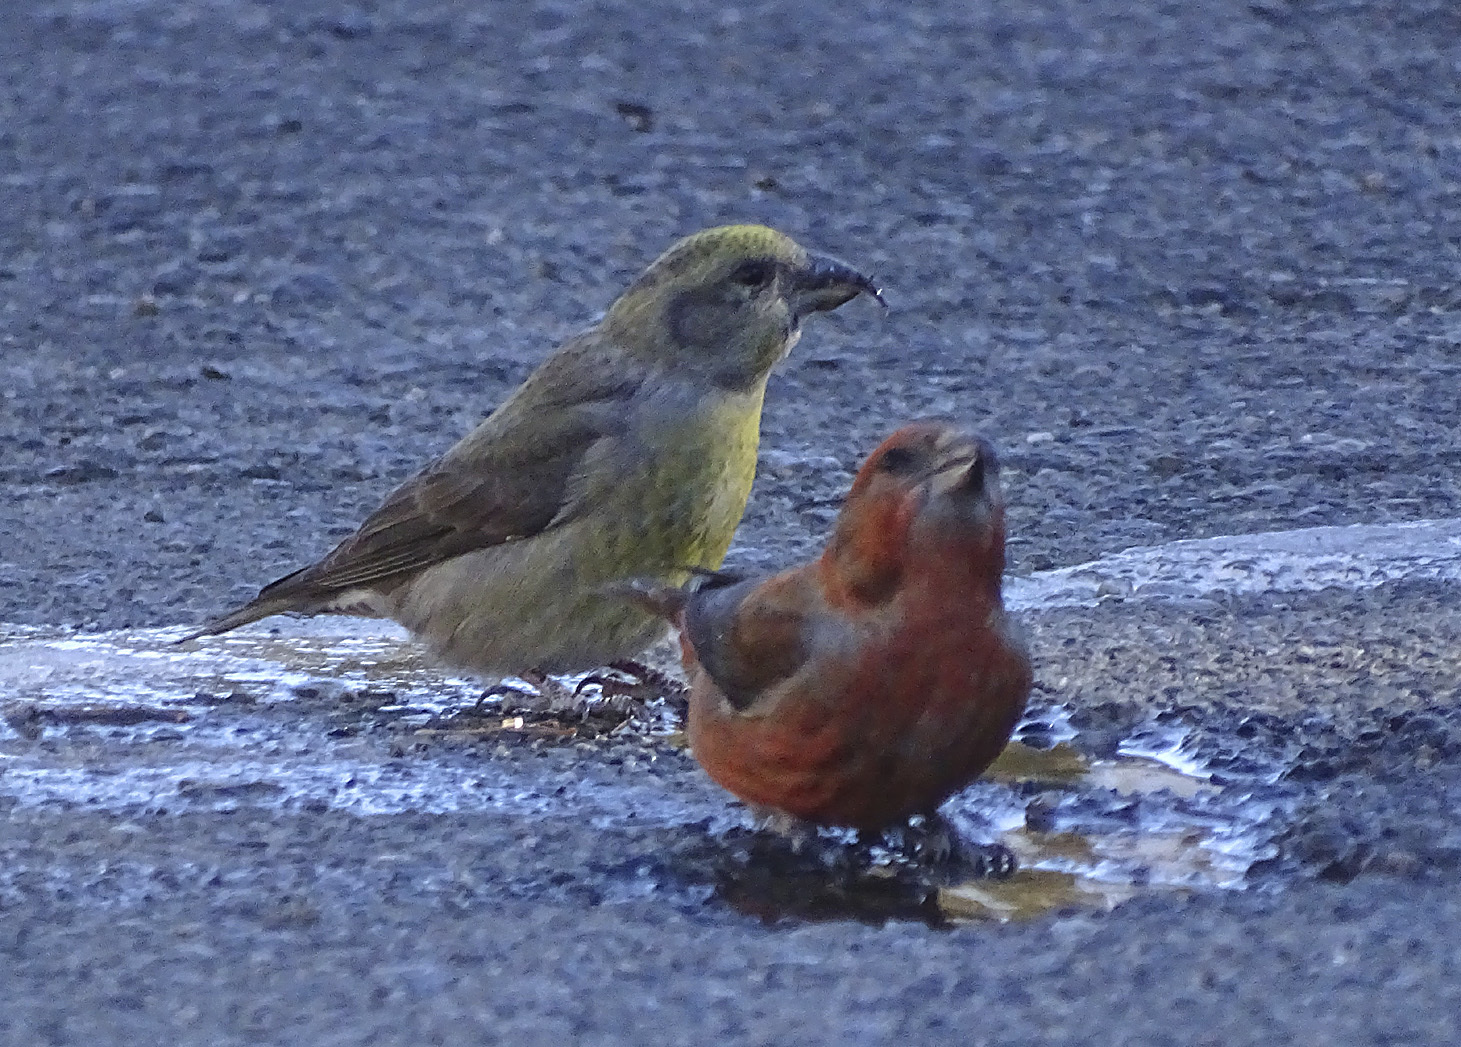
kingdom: Animalia
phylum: Chordata
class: Aves
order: Passeriformes
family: Fringillidae
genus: Loxia
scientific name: Loxia curvirostra
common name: Red crossbill
